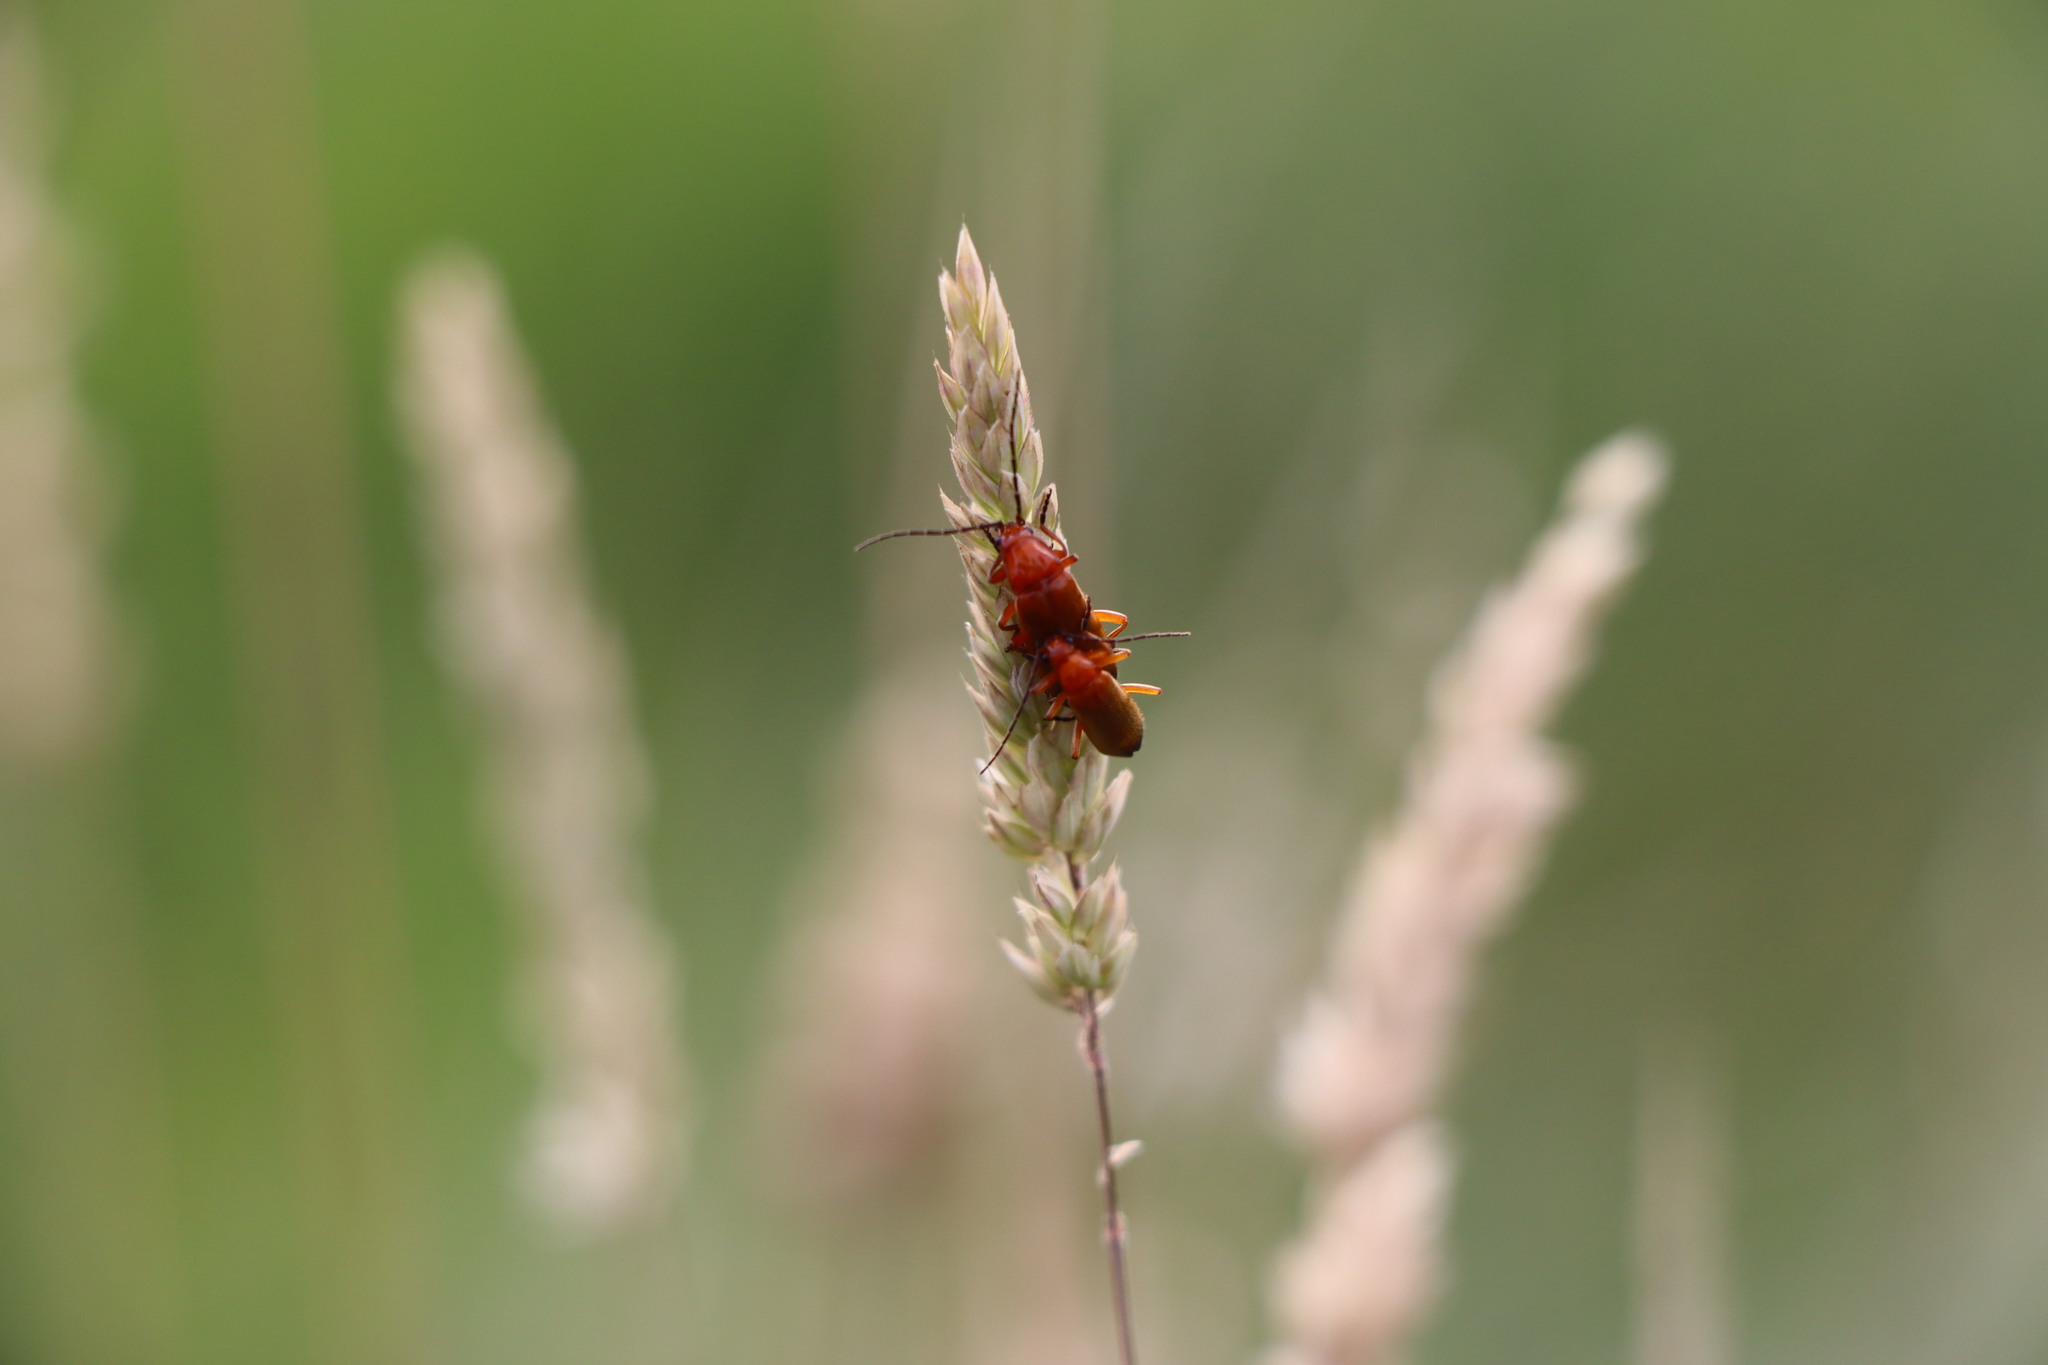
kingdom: Animalia
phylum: Arthropoda
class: Insecta
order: Coleoptera
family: Cantharidae
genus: Rhagonycha
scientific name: Rhagonycha fulva
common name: Common red soldier beetle
